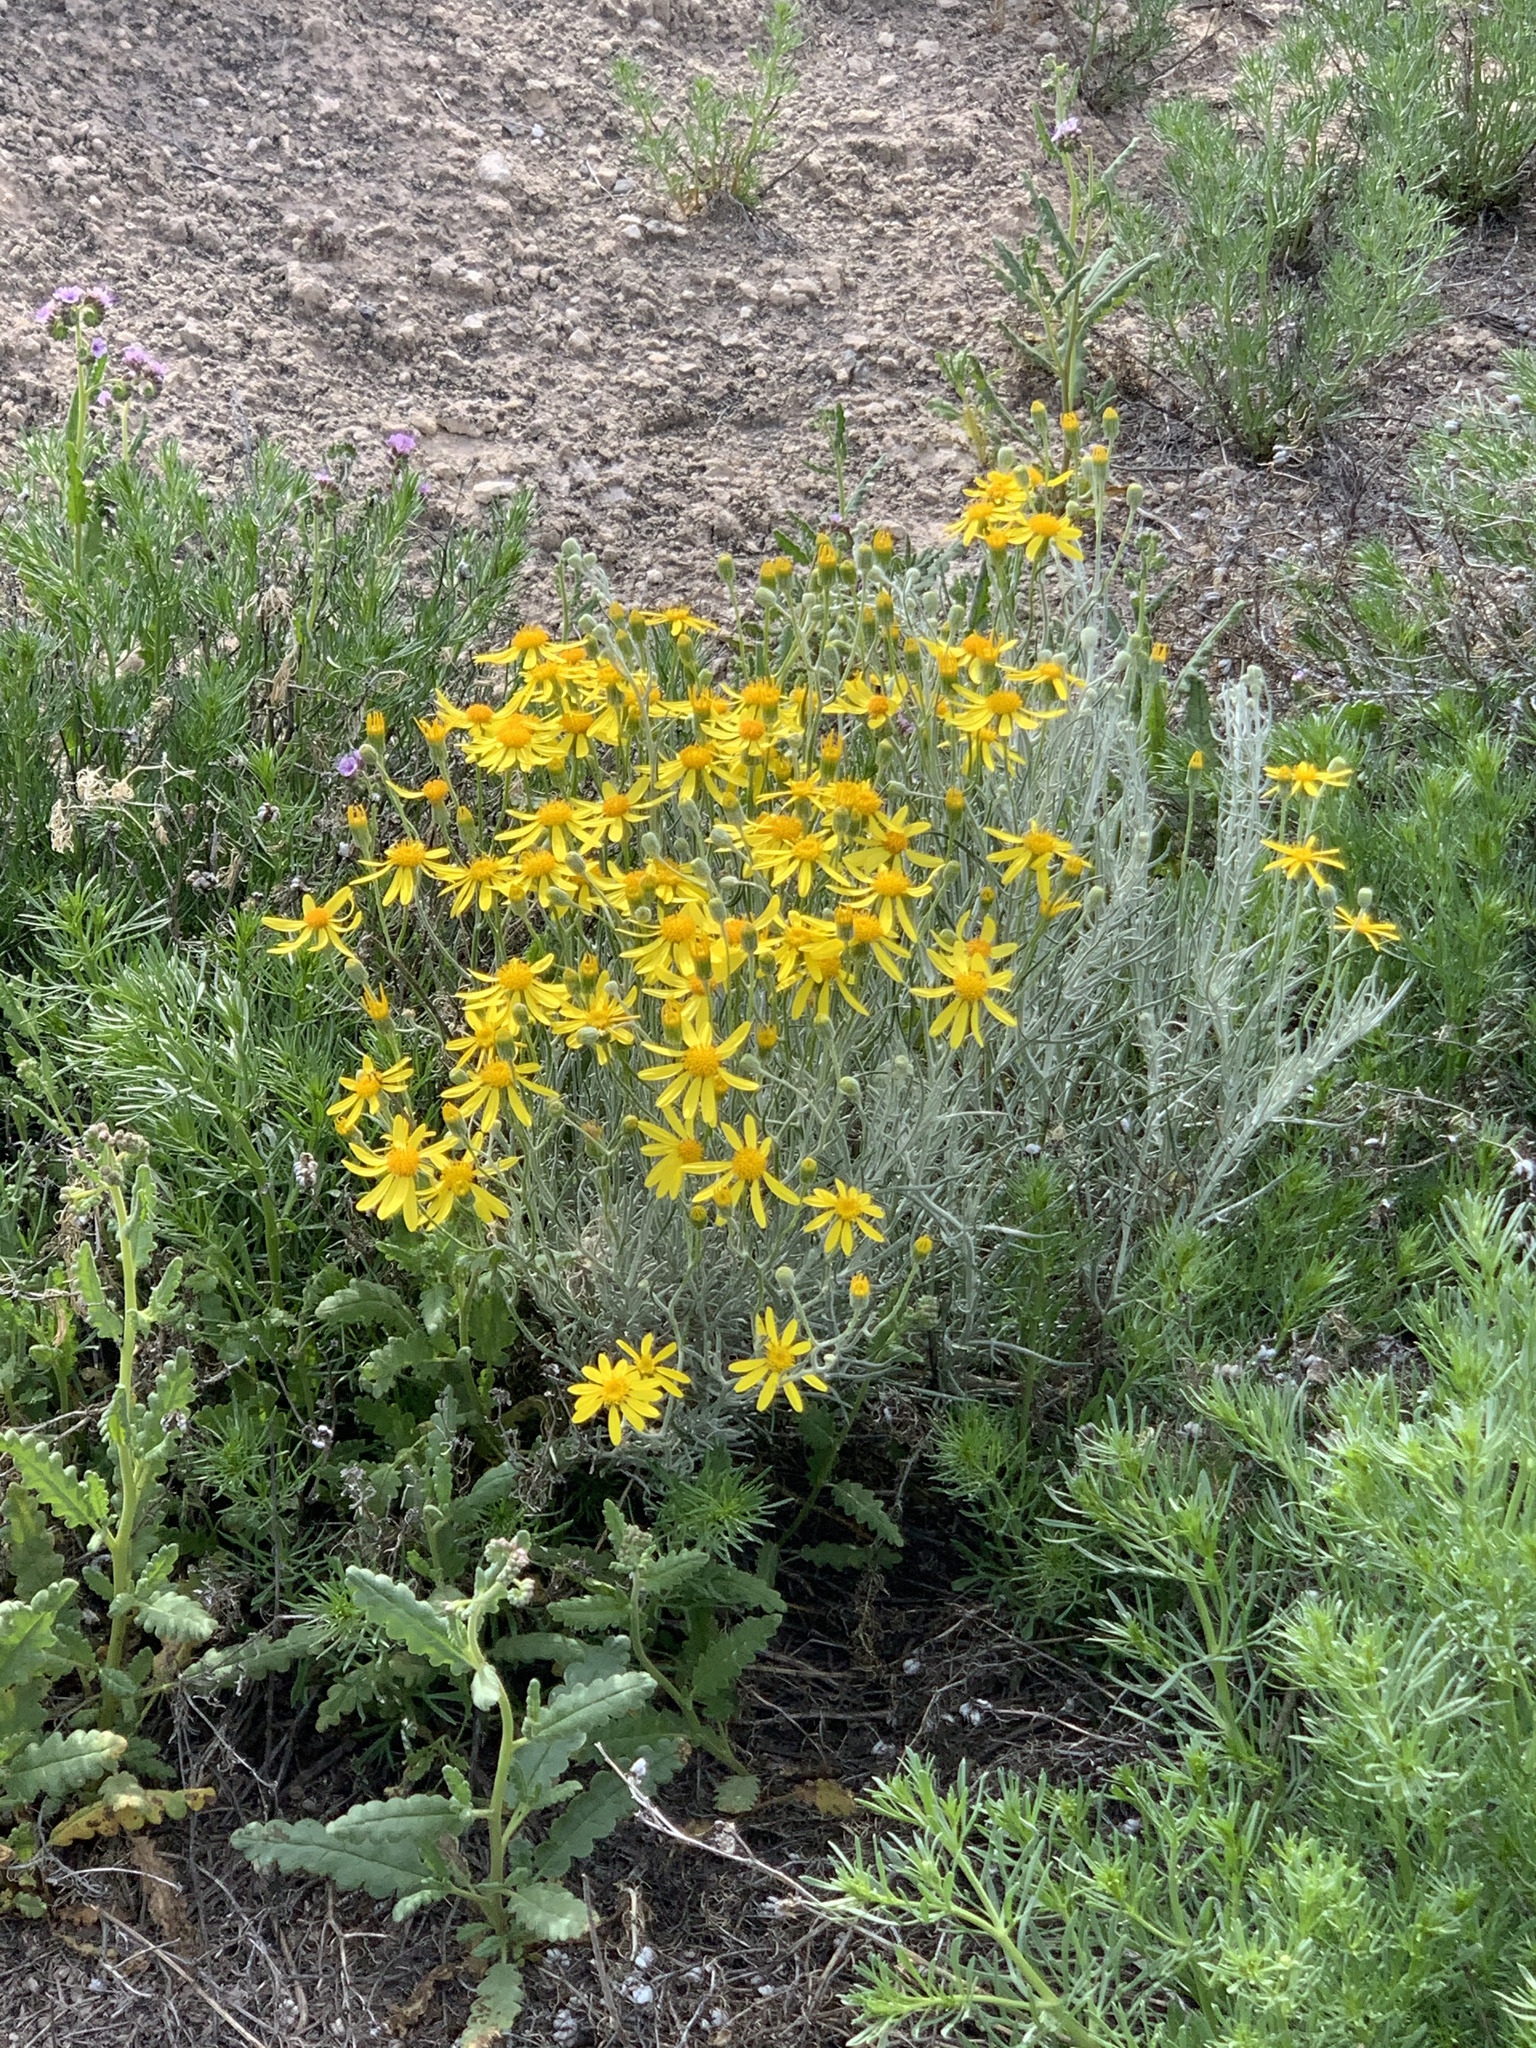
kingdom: Plantae
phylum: Tracheophyta
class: Magnoliopsida
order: Asterales
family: Asteraceae
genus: Senecio
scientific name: Senecio flaccidus
